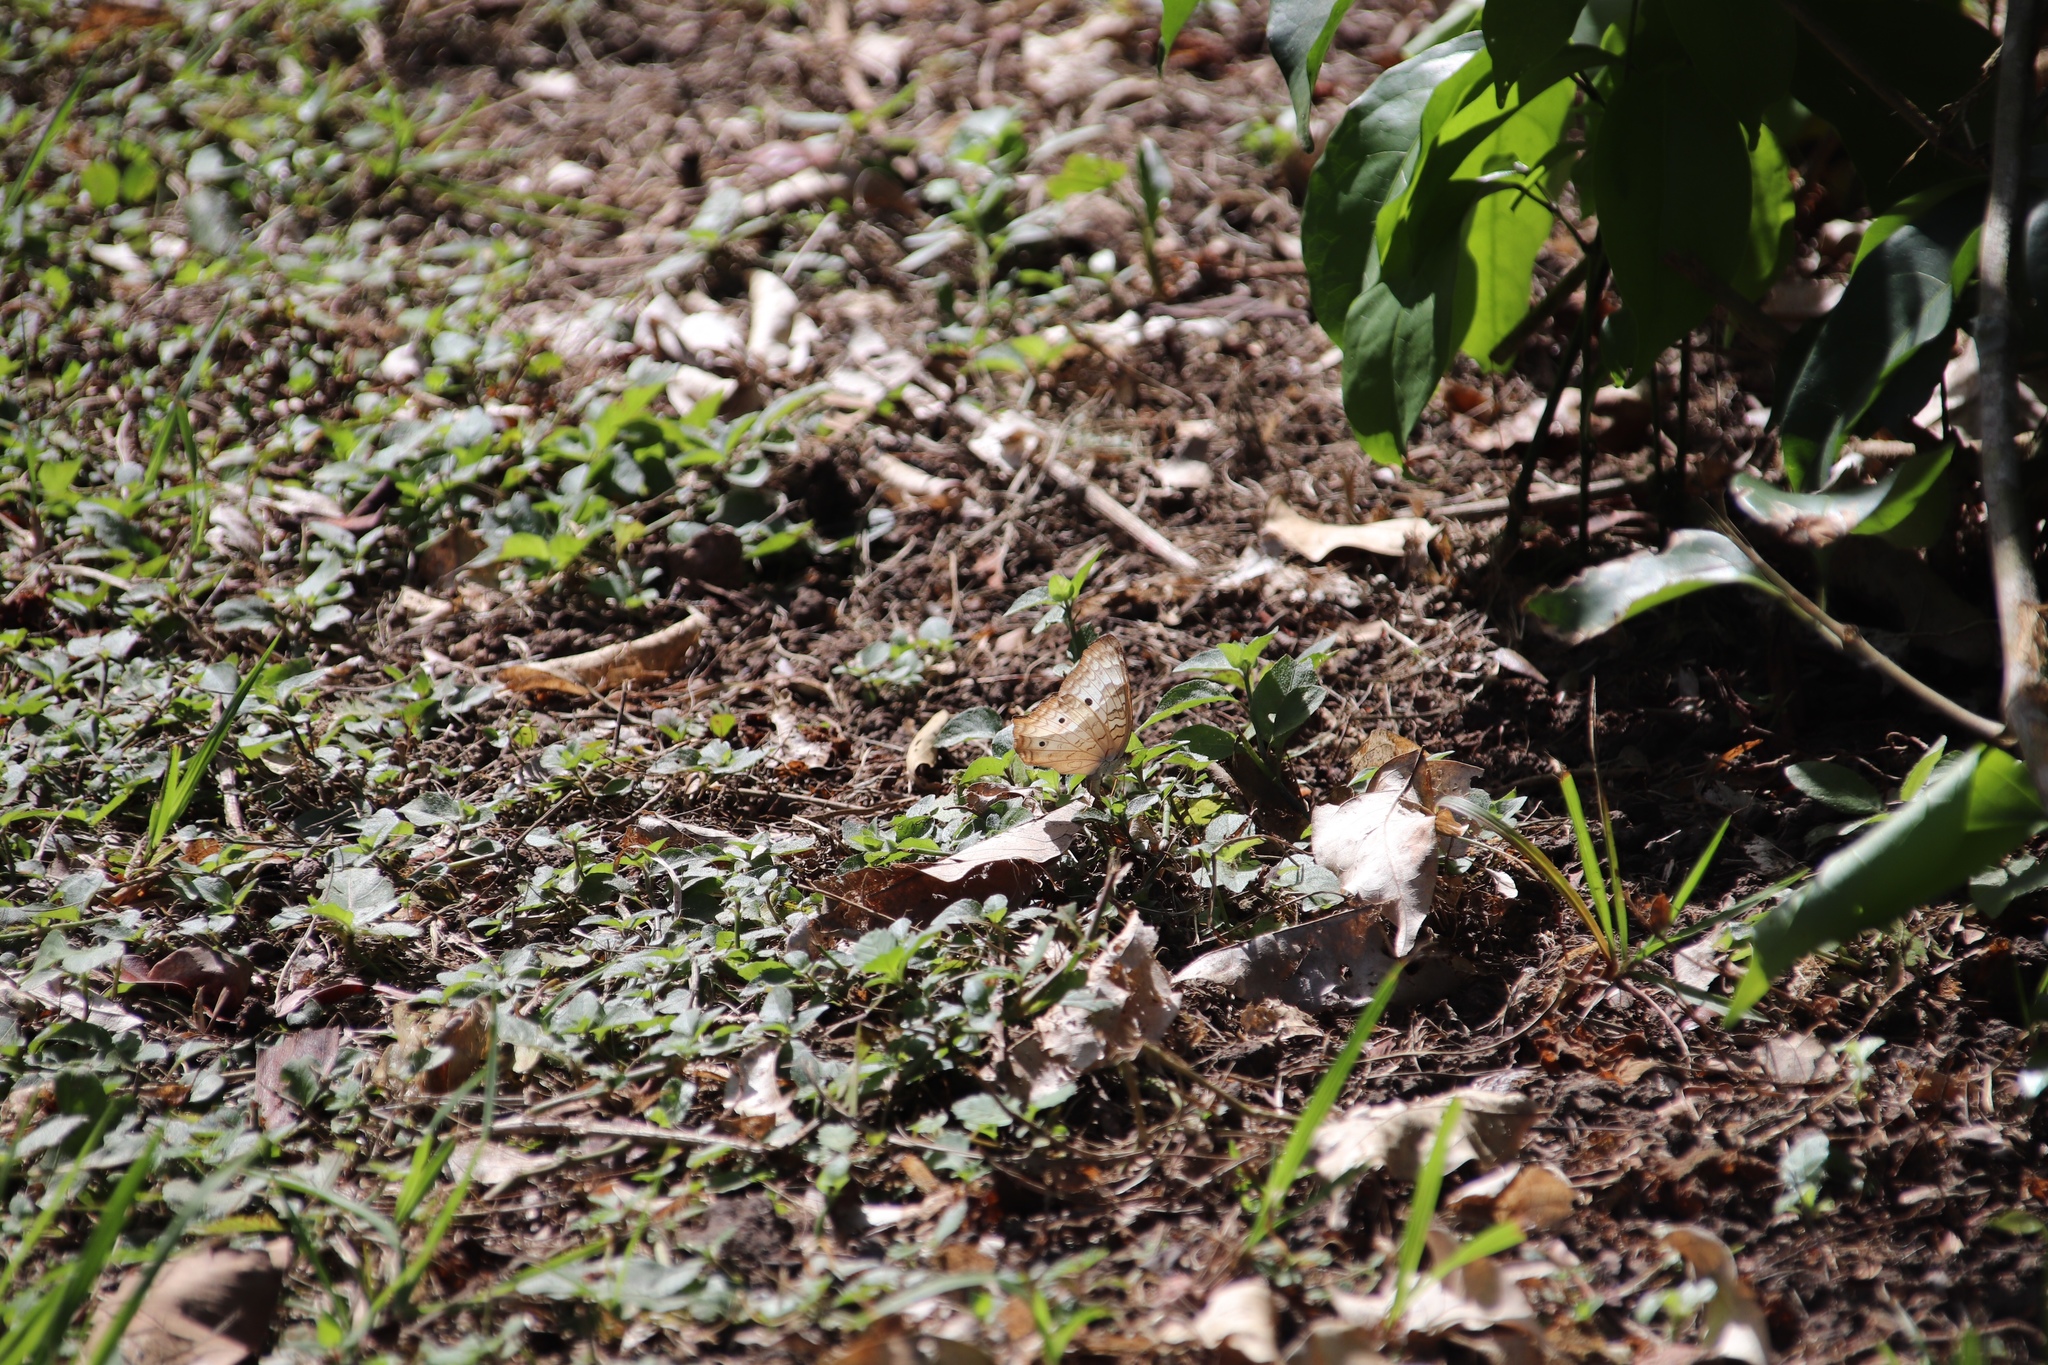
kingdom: Animalia
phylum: Arthropoda
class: Insecta
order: Lepidoptera
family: Nymphalidae
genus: Anartia
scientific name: Anartia jatrophae
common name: White peacock
